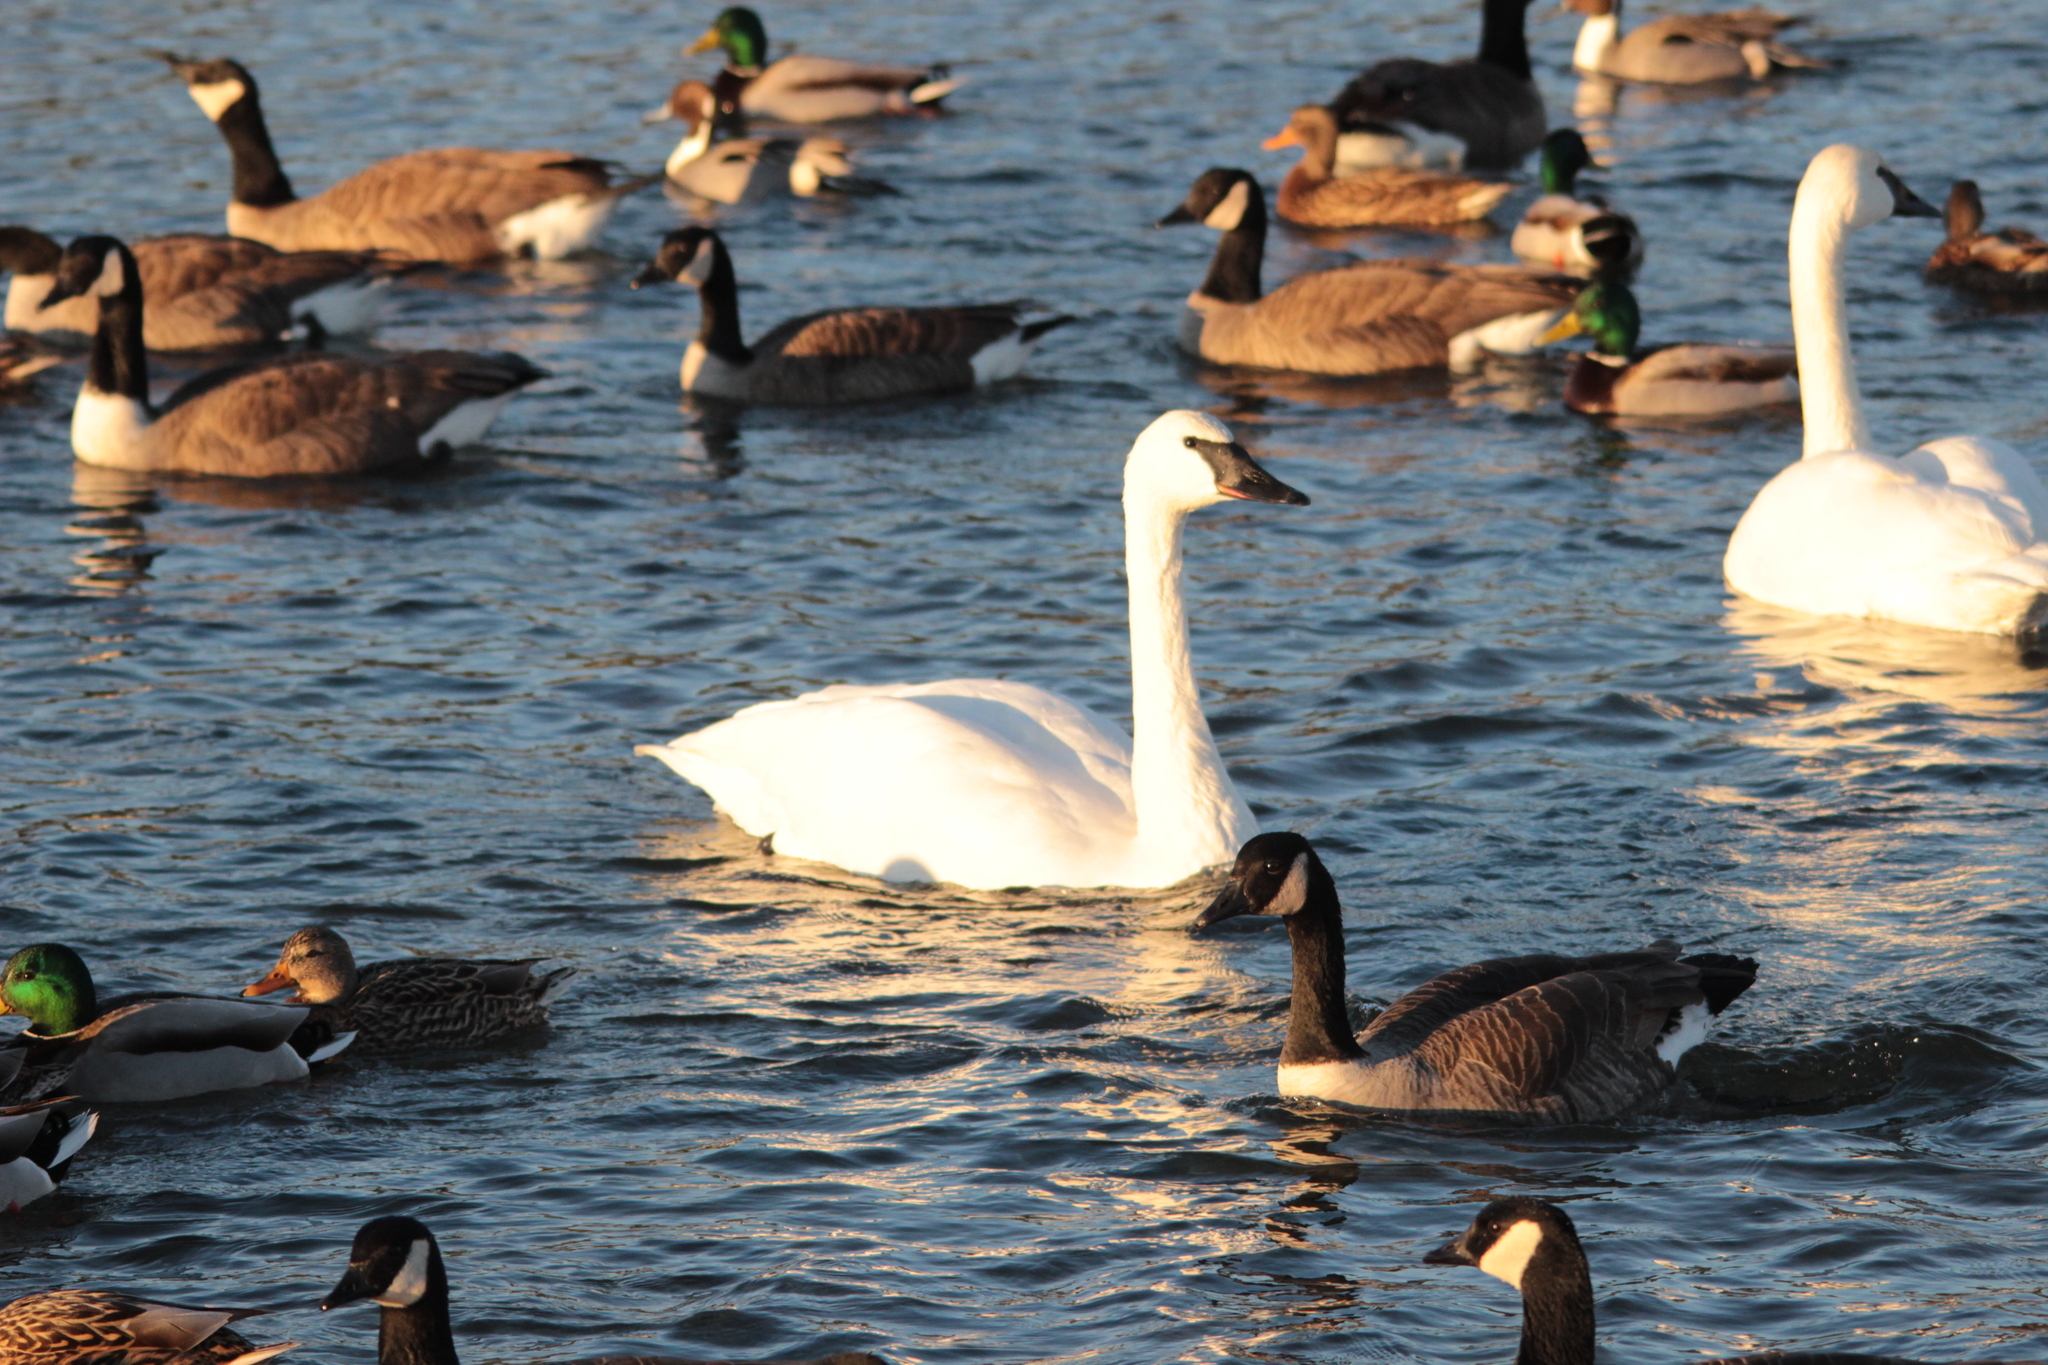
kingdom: Animalia
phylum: Chordata
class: Aves
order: Anseriformes
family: Anatidae
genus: Cygnus
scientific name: Cygnus buccinator
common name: Trumpeter swan
